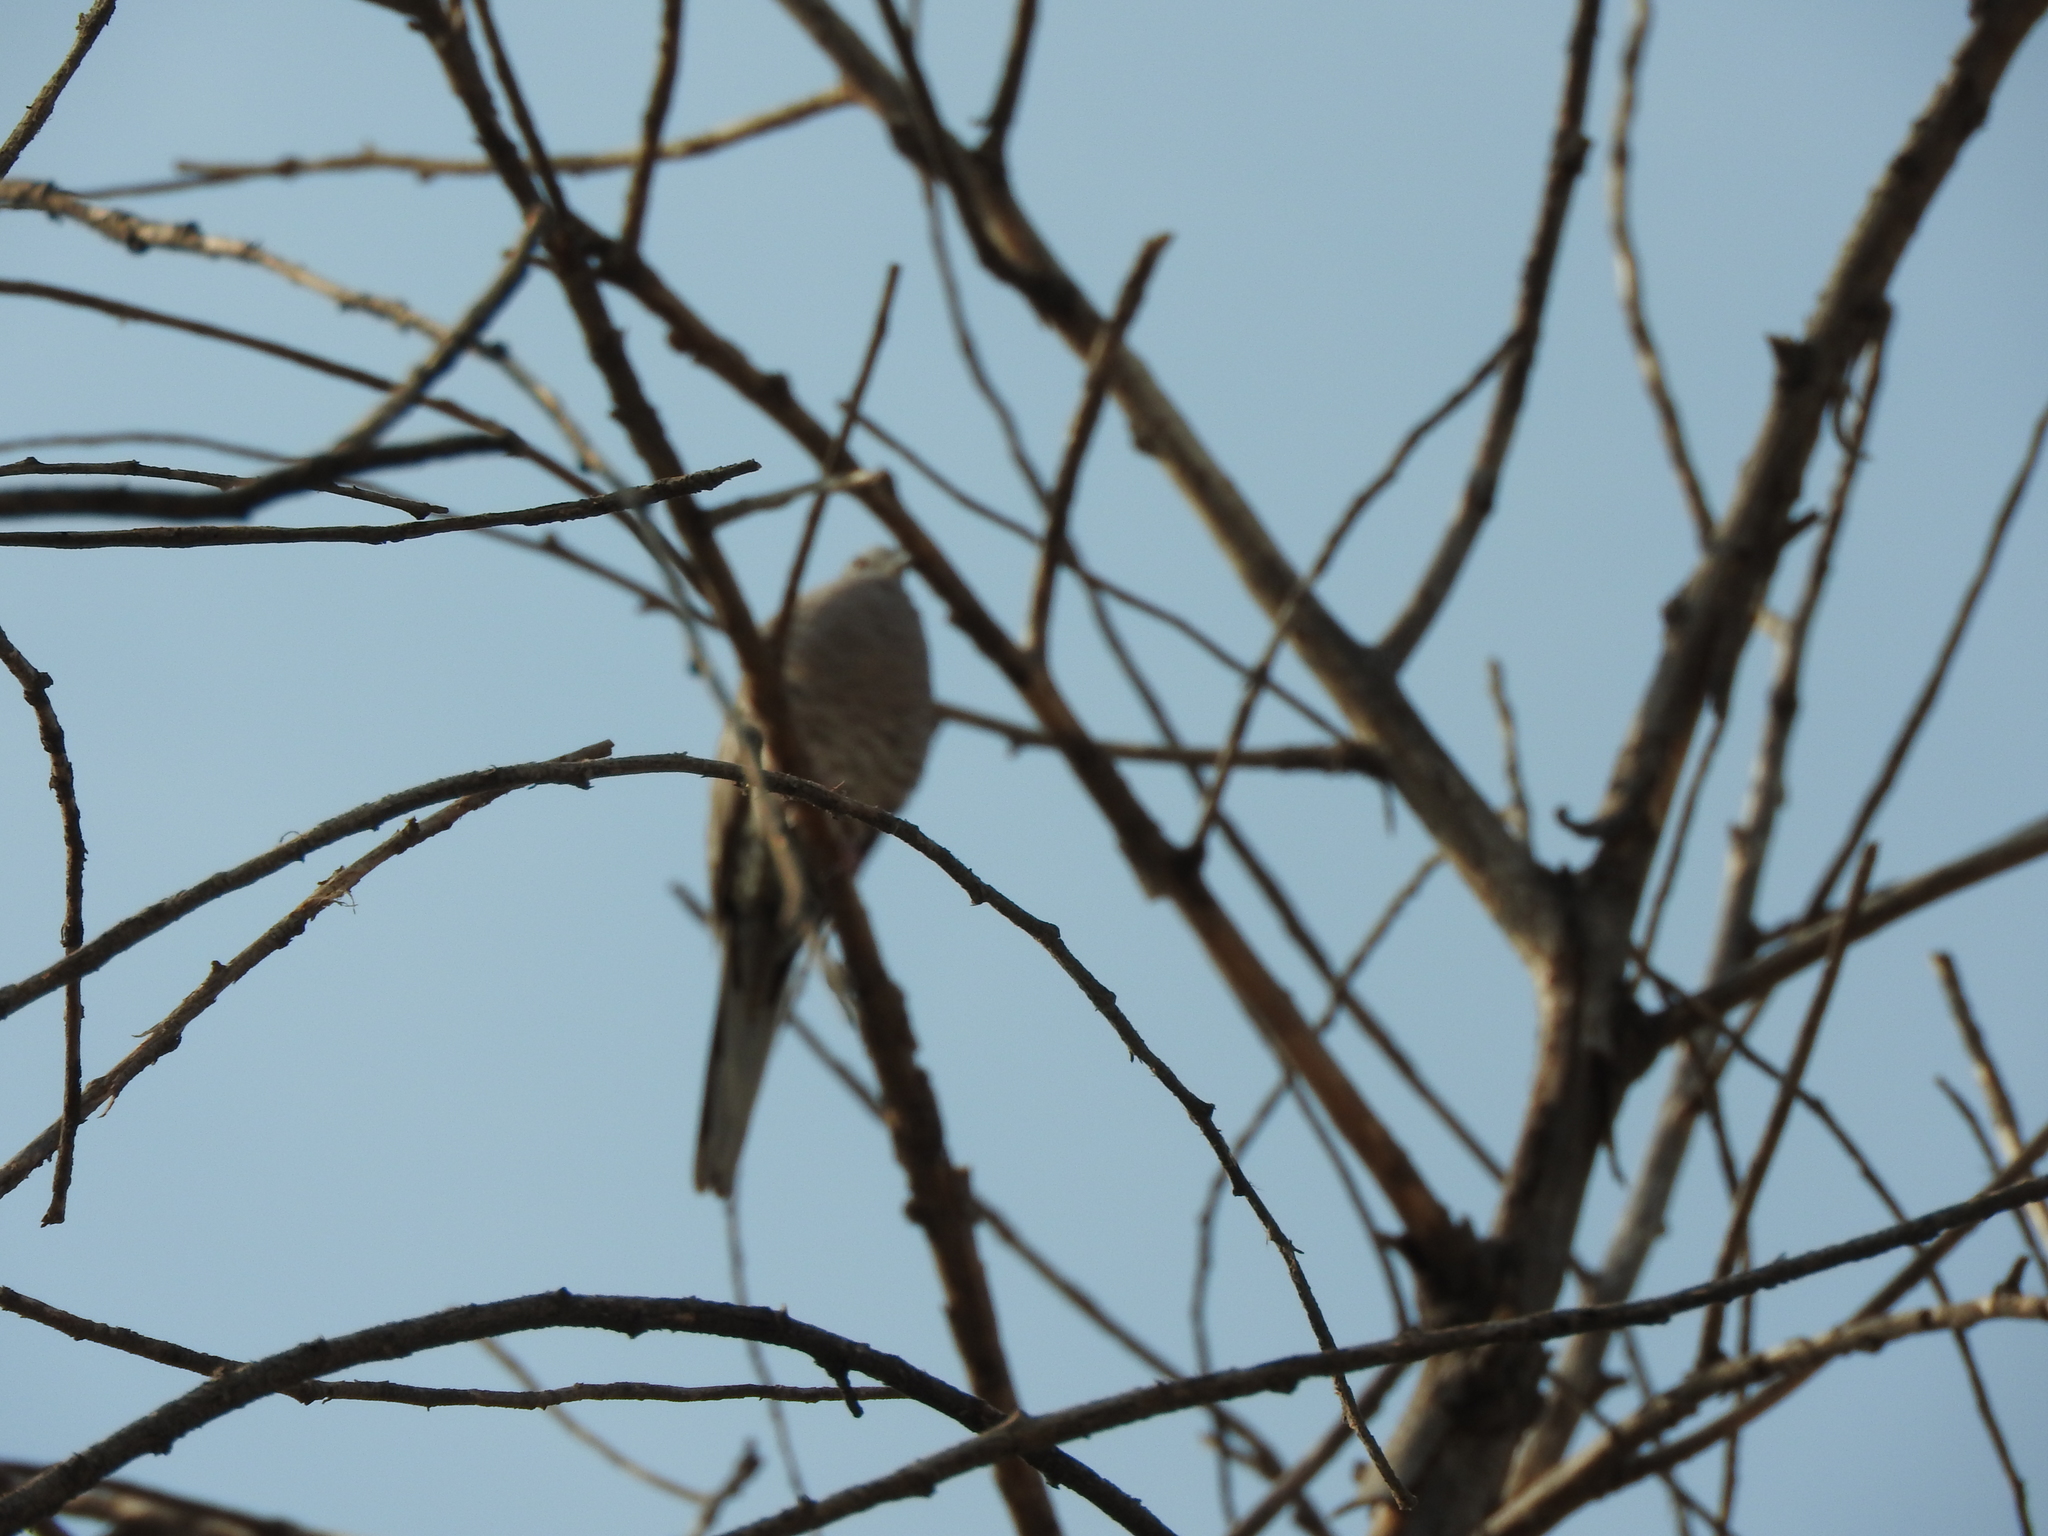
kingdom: Animalia
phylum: Chordata
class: Aves
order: Columbiformes
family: Columbidae
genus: Columbina
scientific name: Columbina inca
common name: Inca dove
